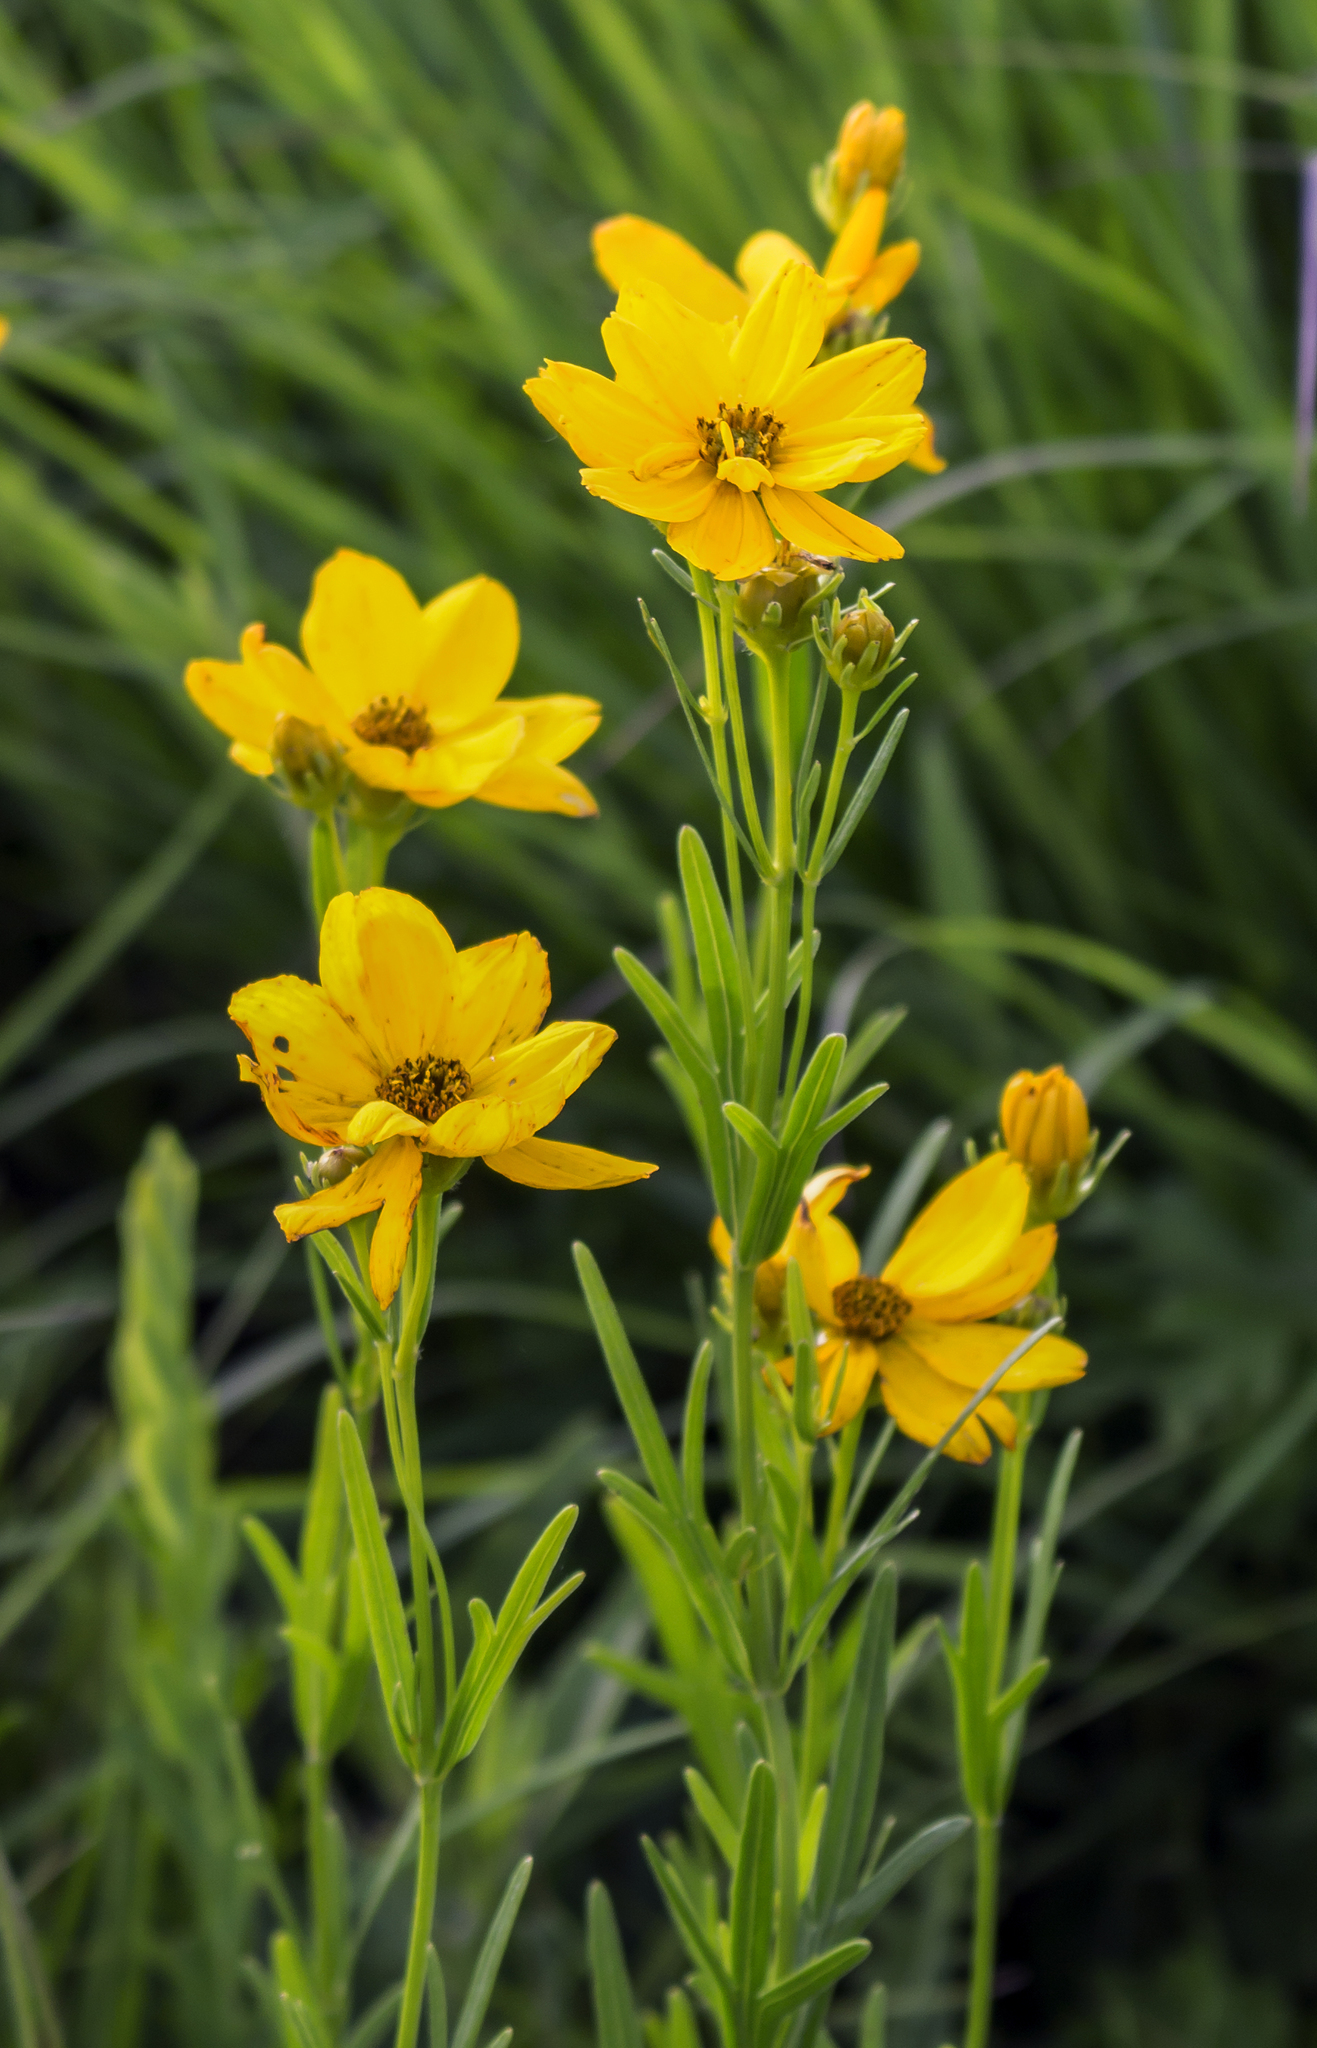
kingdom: Plantae
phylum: Tracheophyta
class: Magnoliopsida
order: Asterales
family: Asteraceae
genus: Coreopsis
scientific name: Coreopsis palmata
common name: Prairie coreopsis
